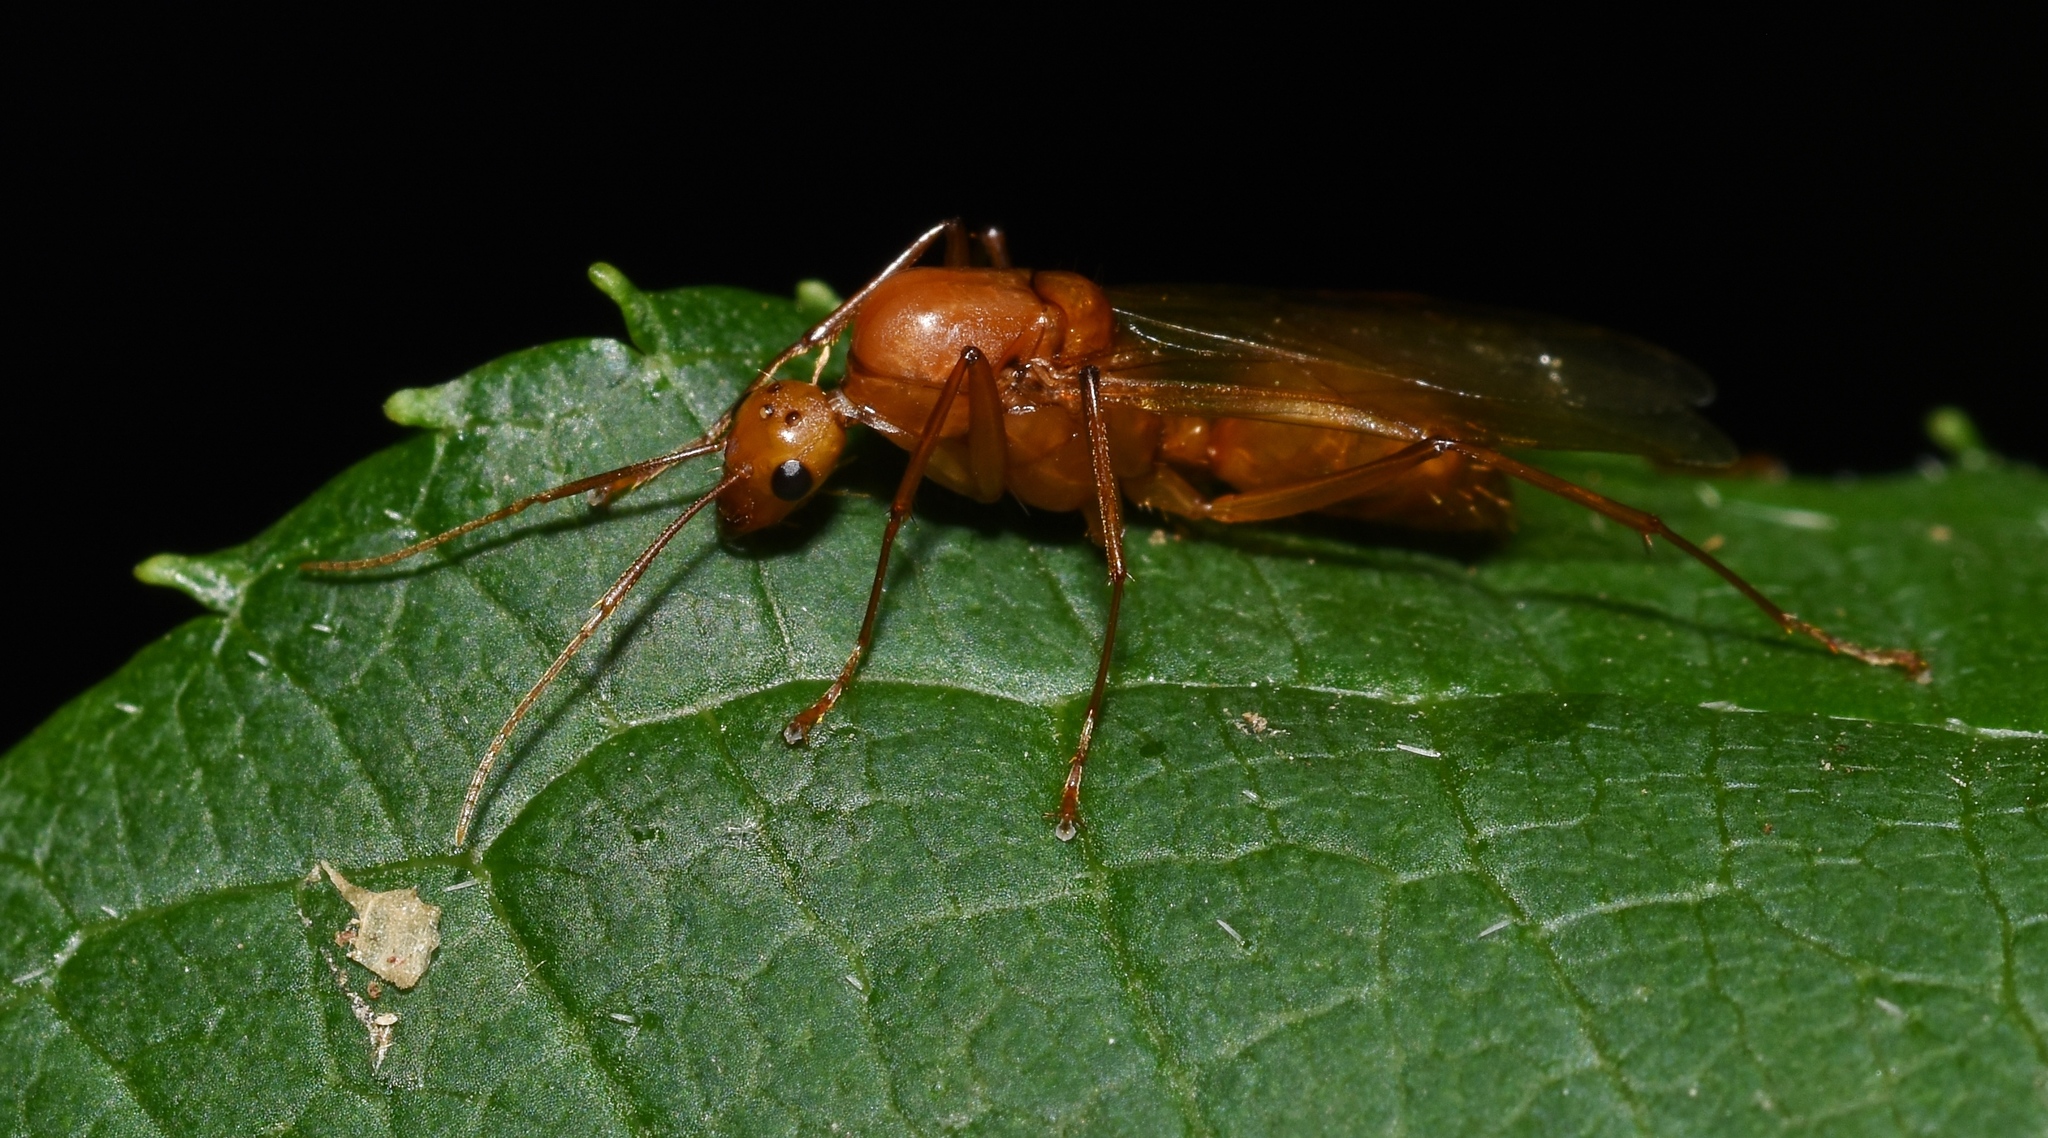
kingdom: Animalia
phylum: Arthropoda
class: Insecta
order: Hymenoptera
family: Formicidae
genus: Camponotus
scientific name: Camponotus castaneus
